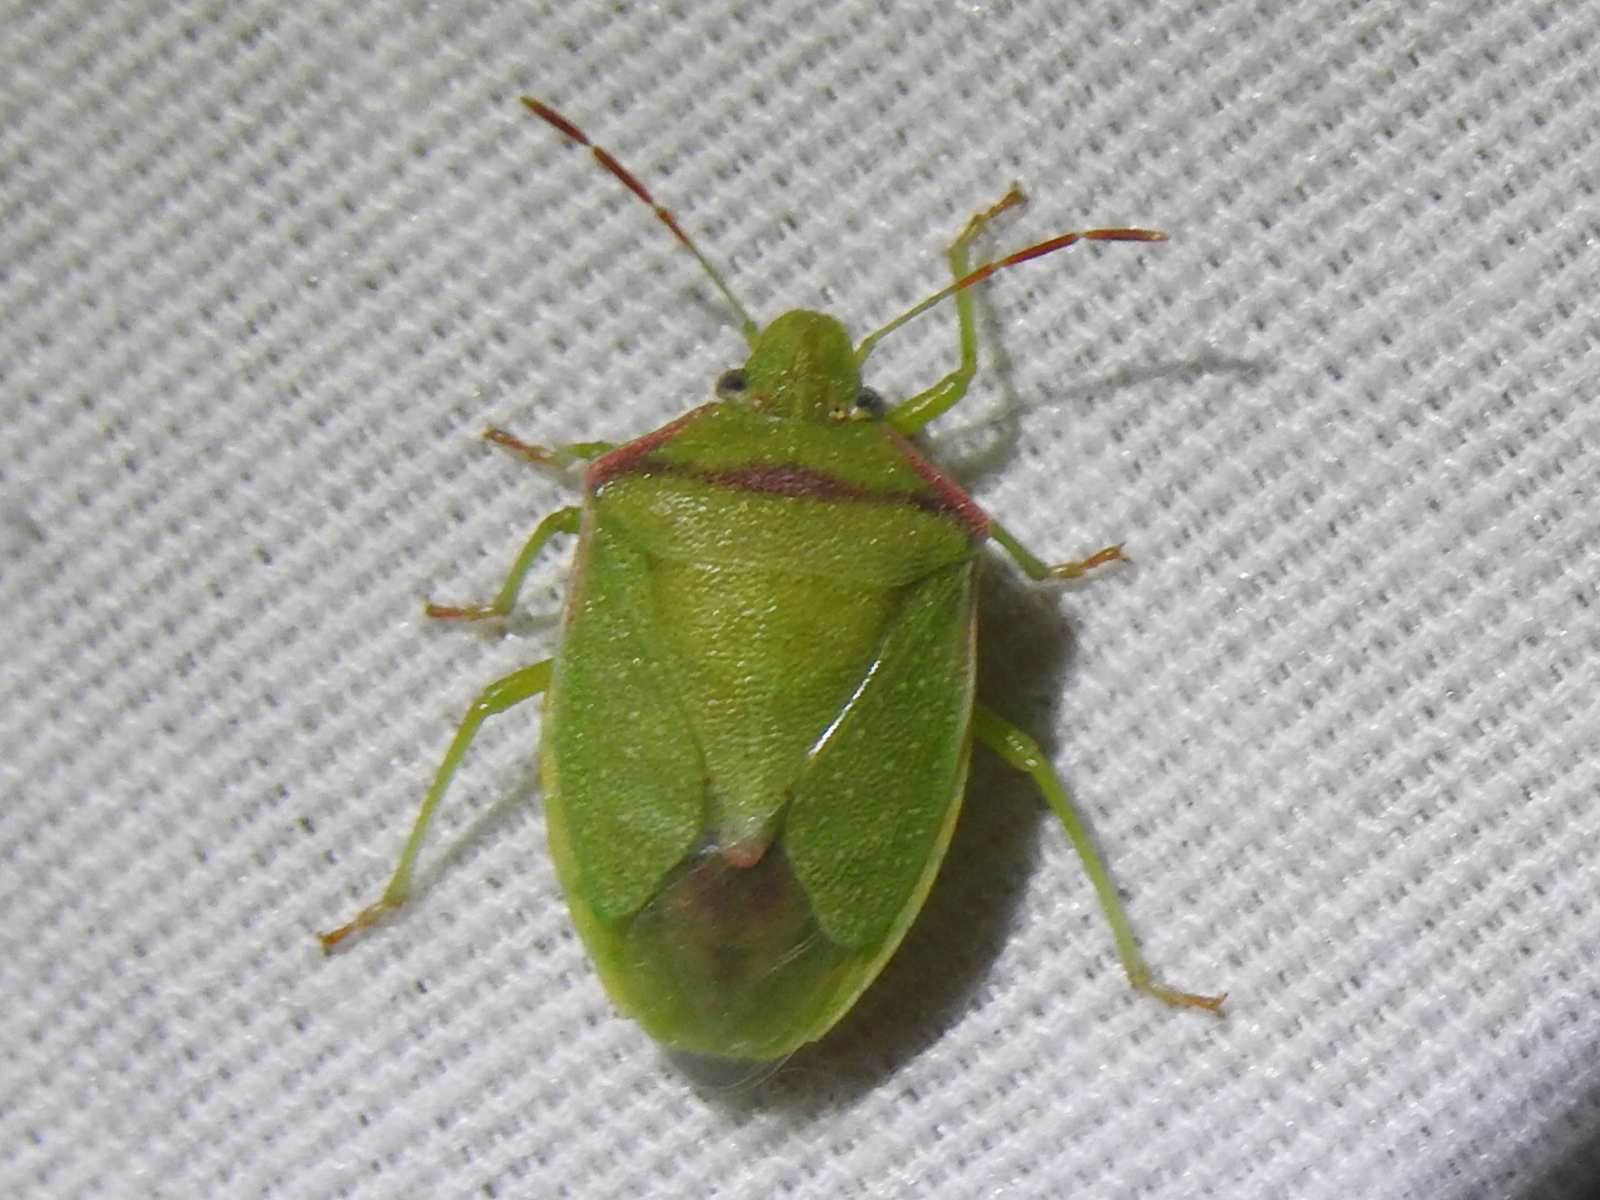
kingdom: Animalia
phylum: Arthropoda
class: Insecta
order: Hemiptera
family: Pentatomidae
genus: Thyanta
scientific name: Thyanta accerra
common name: Stink bug
